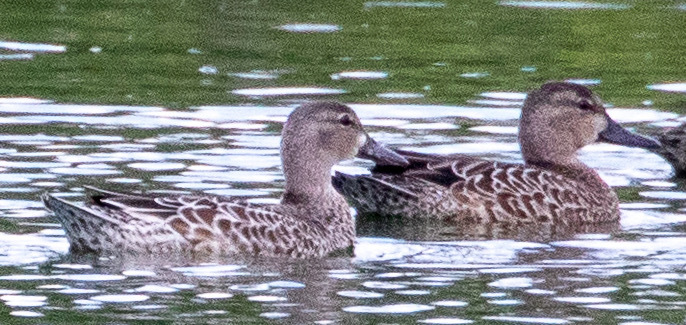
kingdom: Animalia
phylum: Chordata
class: Aves
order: Anseriformes
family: Anatidae
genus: Spatula
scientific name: Spatula discors
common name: Blue-winged teal
